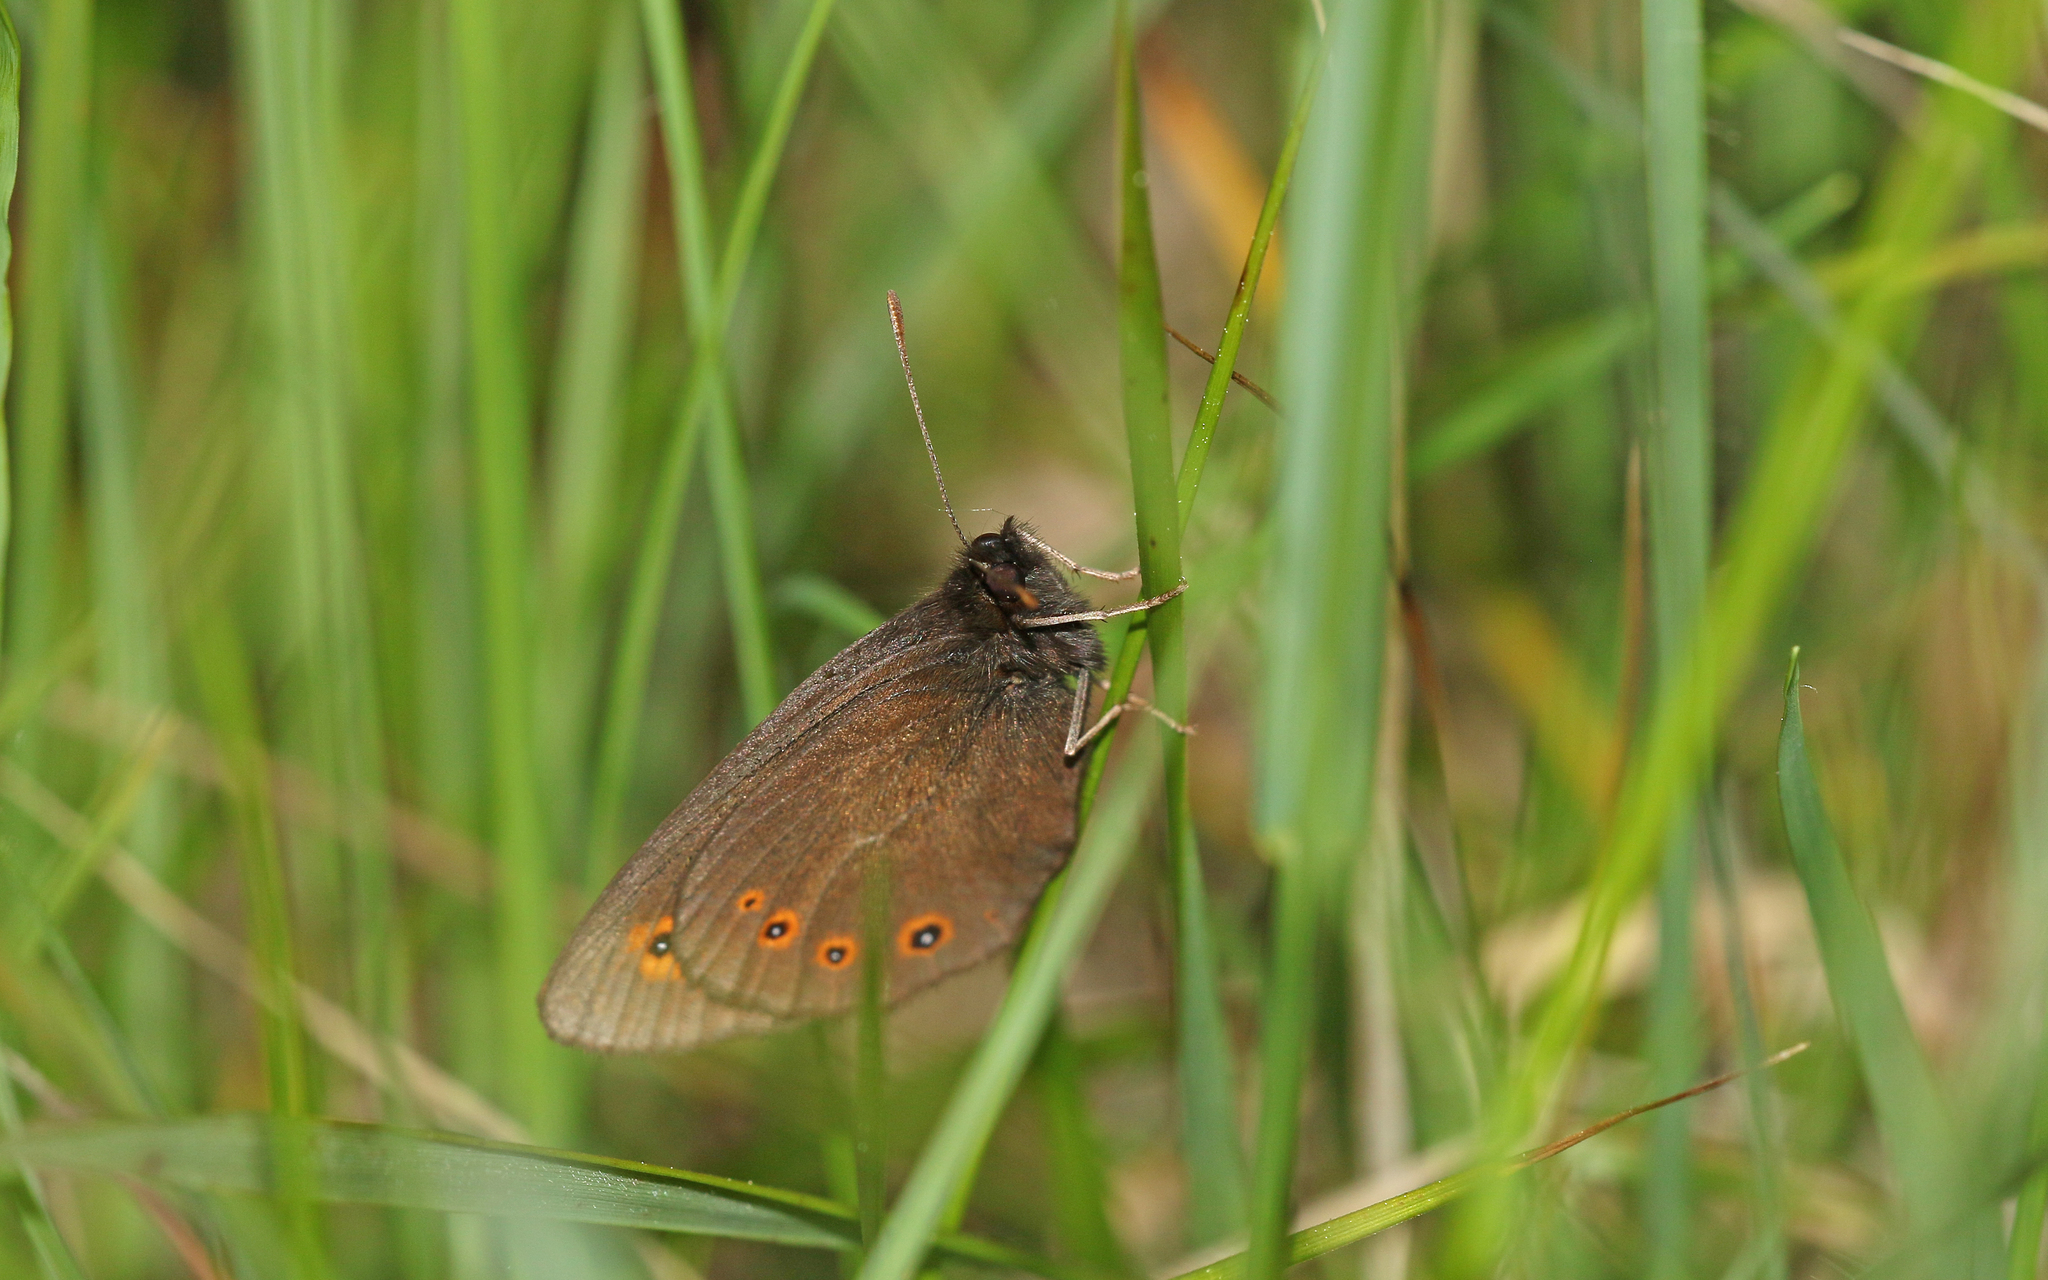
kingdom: Animalia
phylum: Arthropoda
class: Insecta
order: Lepidoptera
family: Nymphalidae
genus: Erebia
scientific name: Erebia medusa
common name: Woodland ringlet
